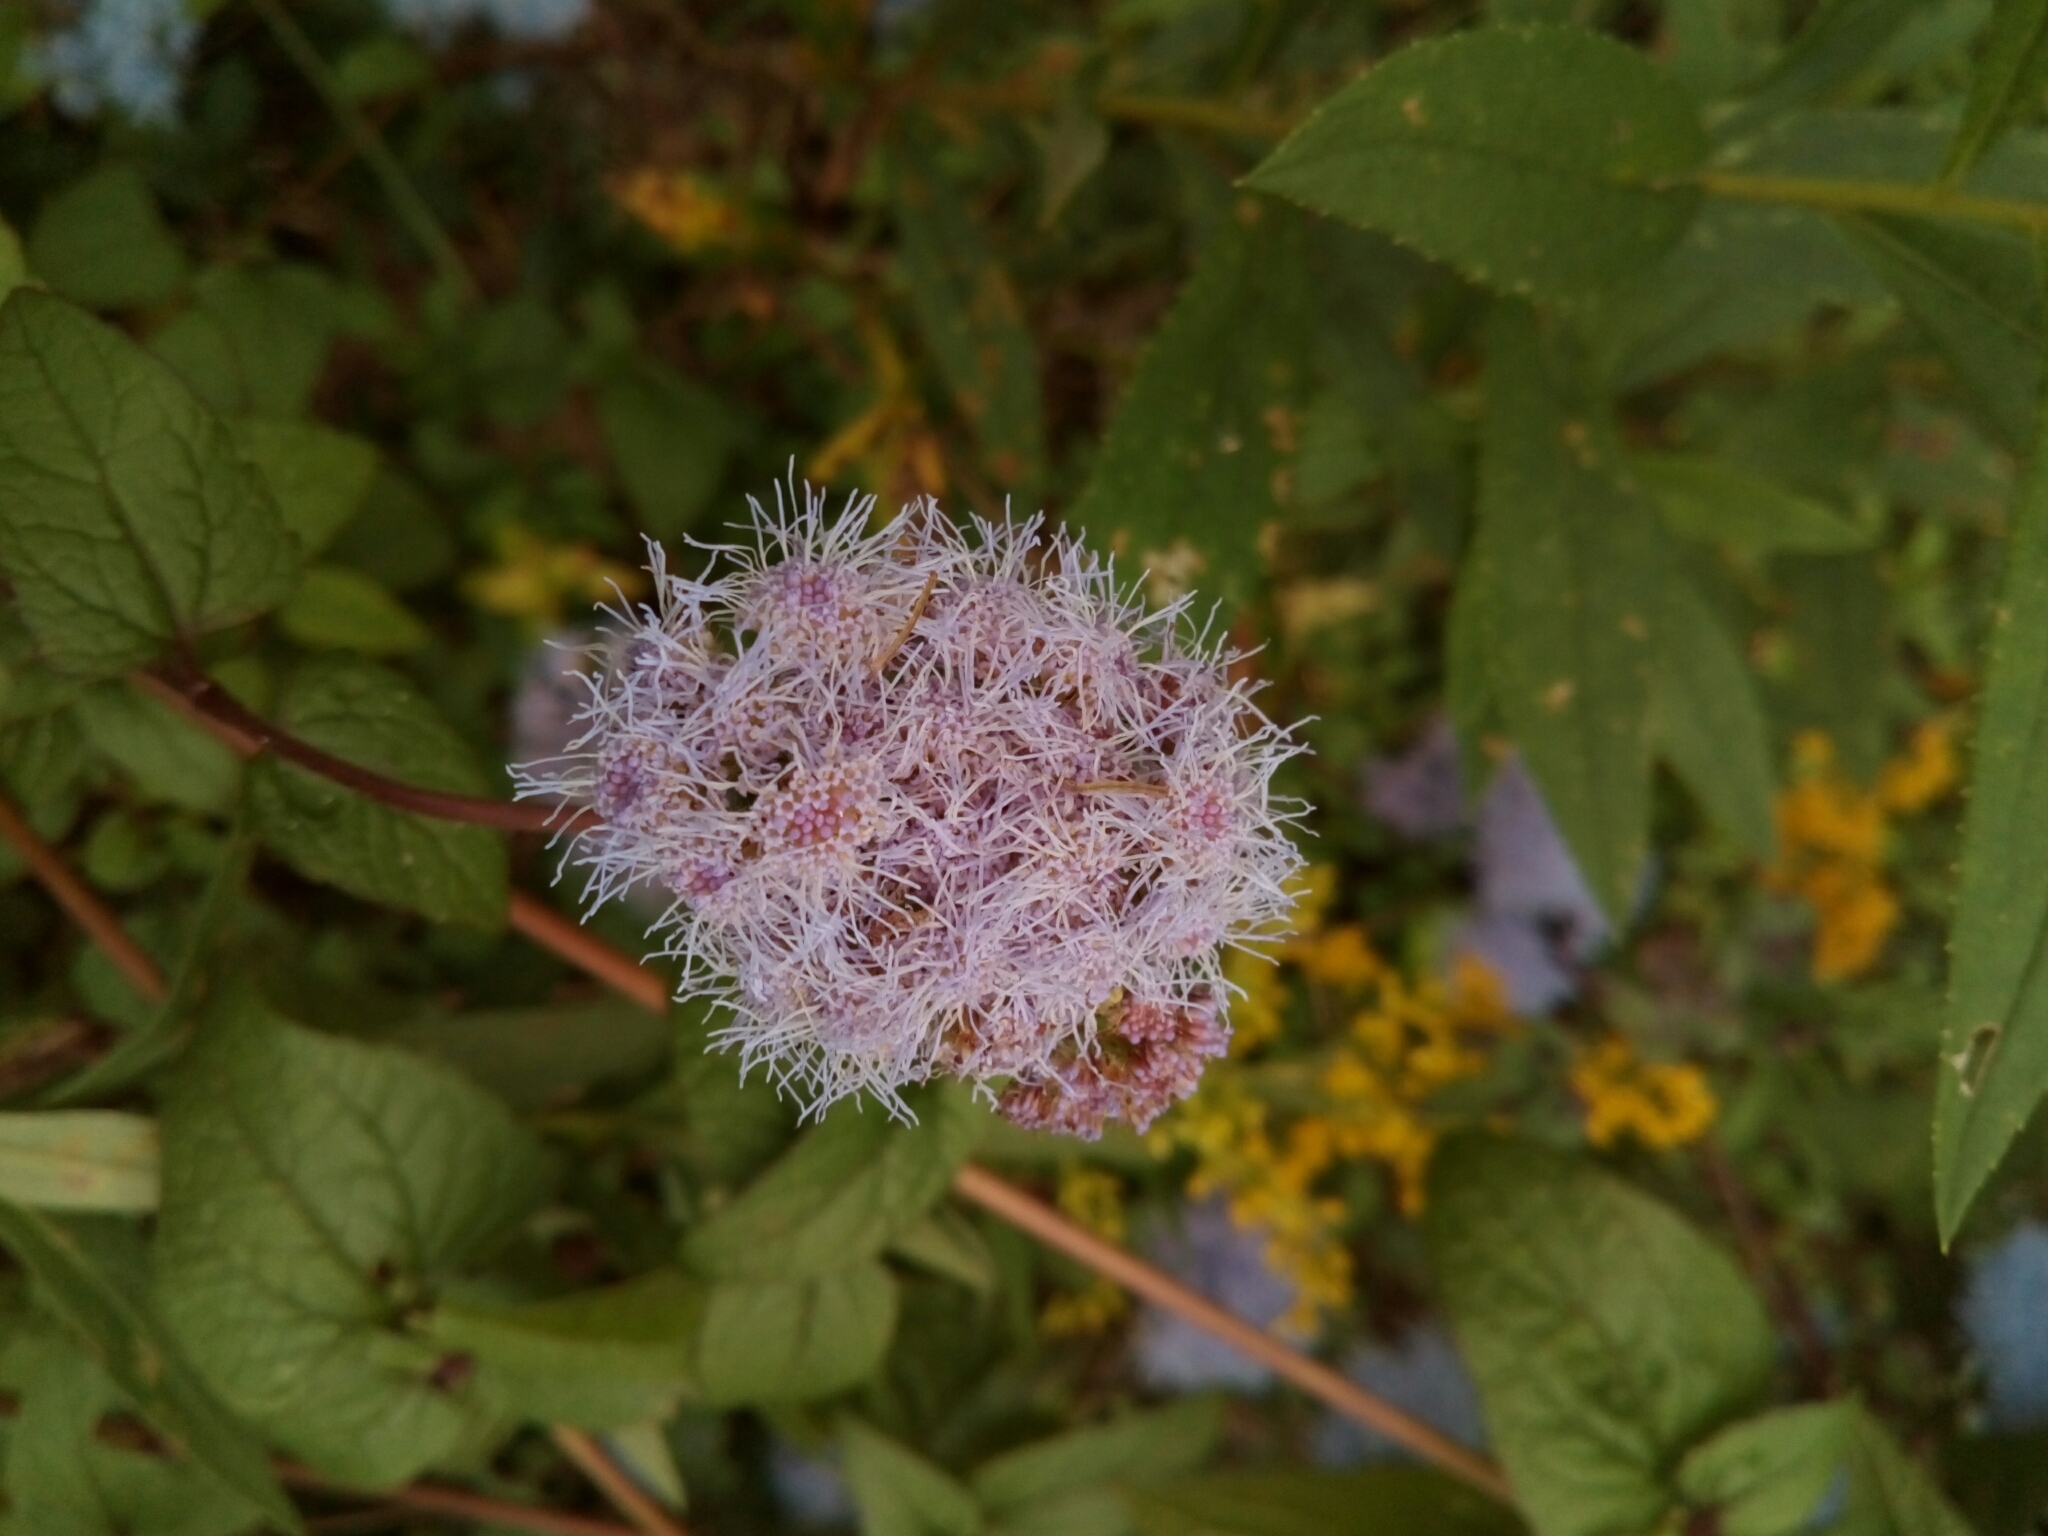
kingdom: Plantae
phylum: Tracheophyta
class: Magnoliopsida
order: Asterales
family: Asteraceae
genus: Conoclinium
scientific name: Conoclinium coelestinum
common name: Blue mistflower
